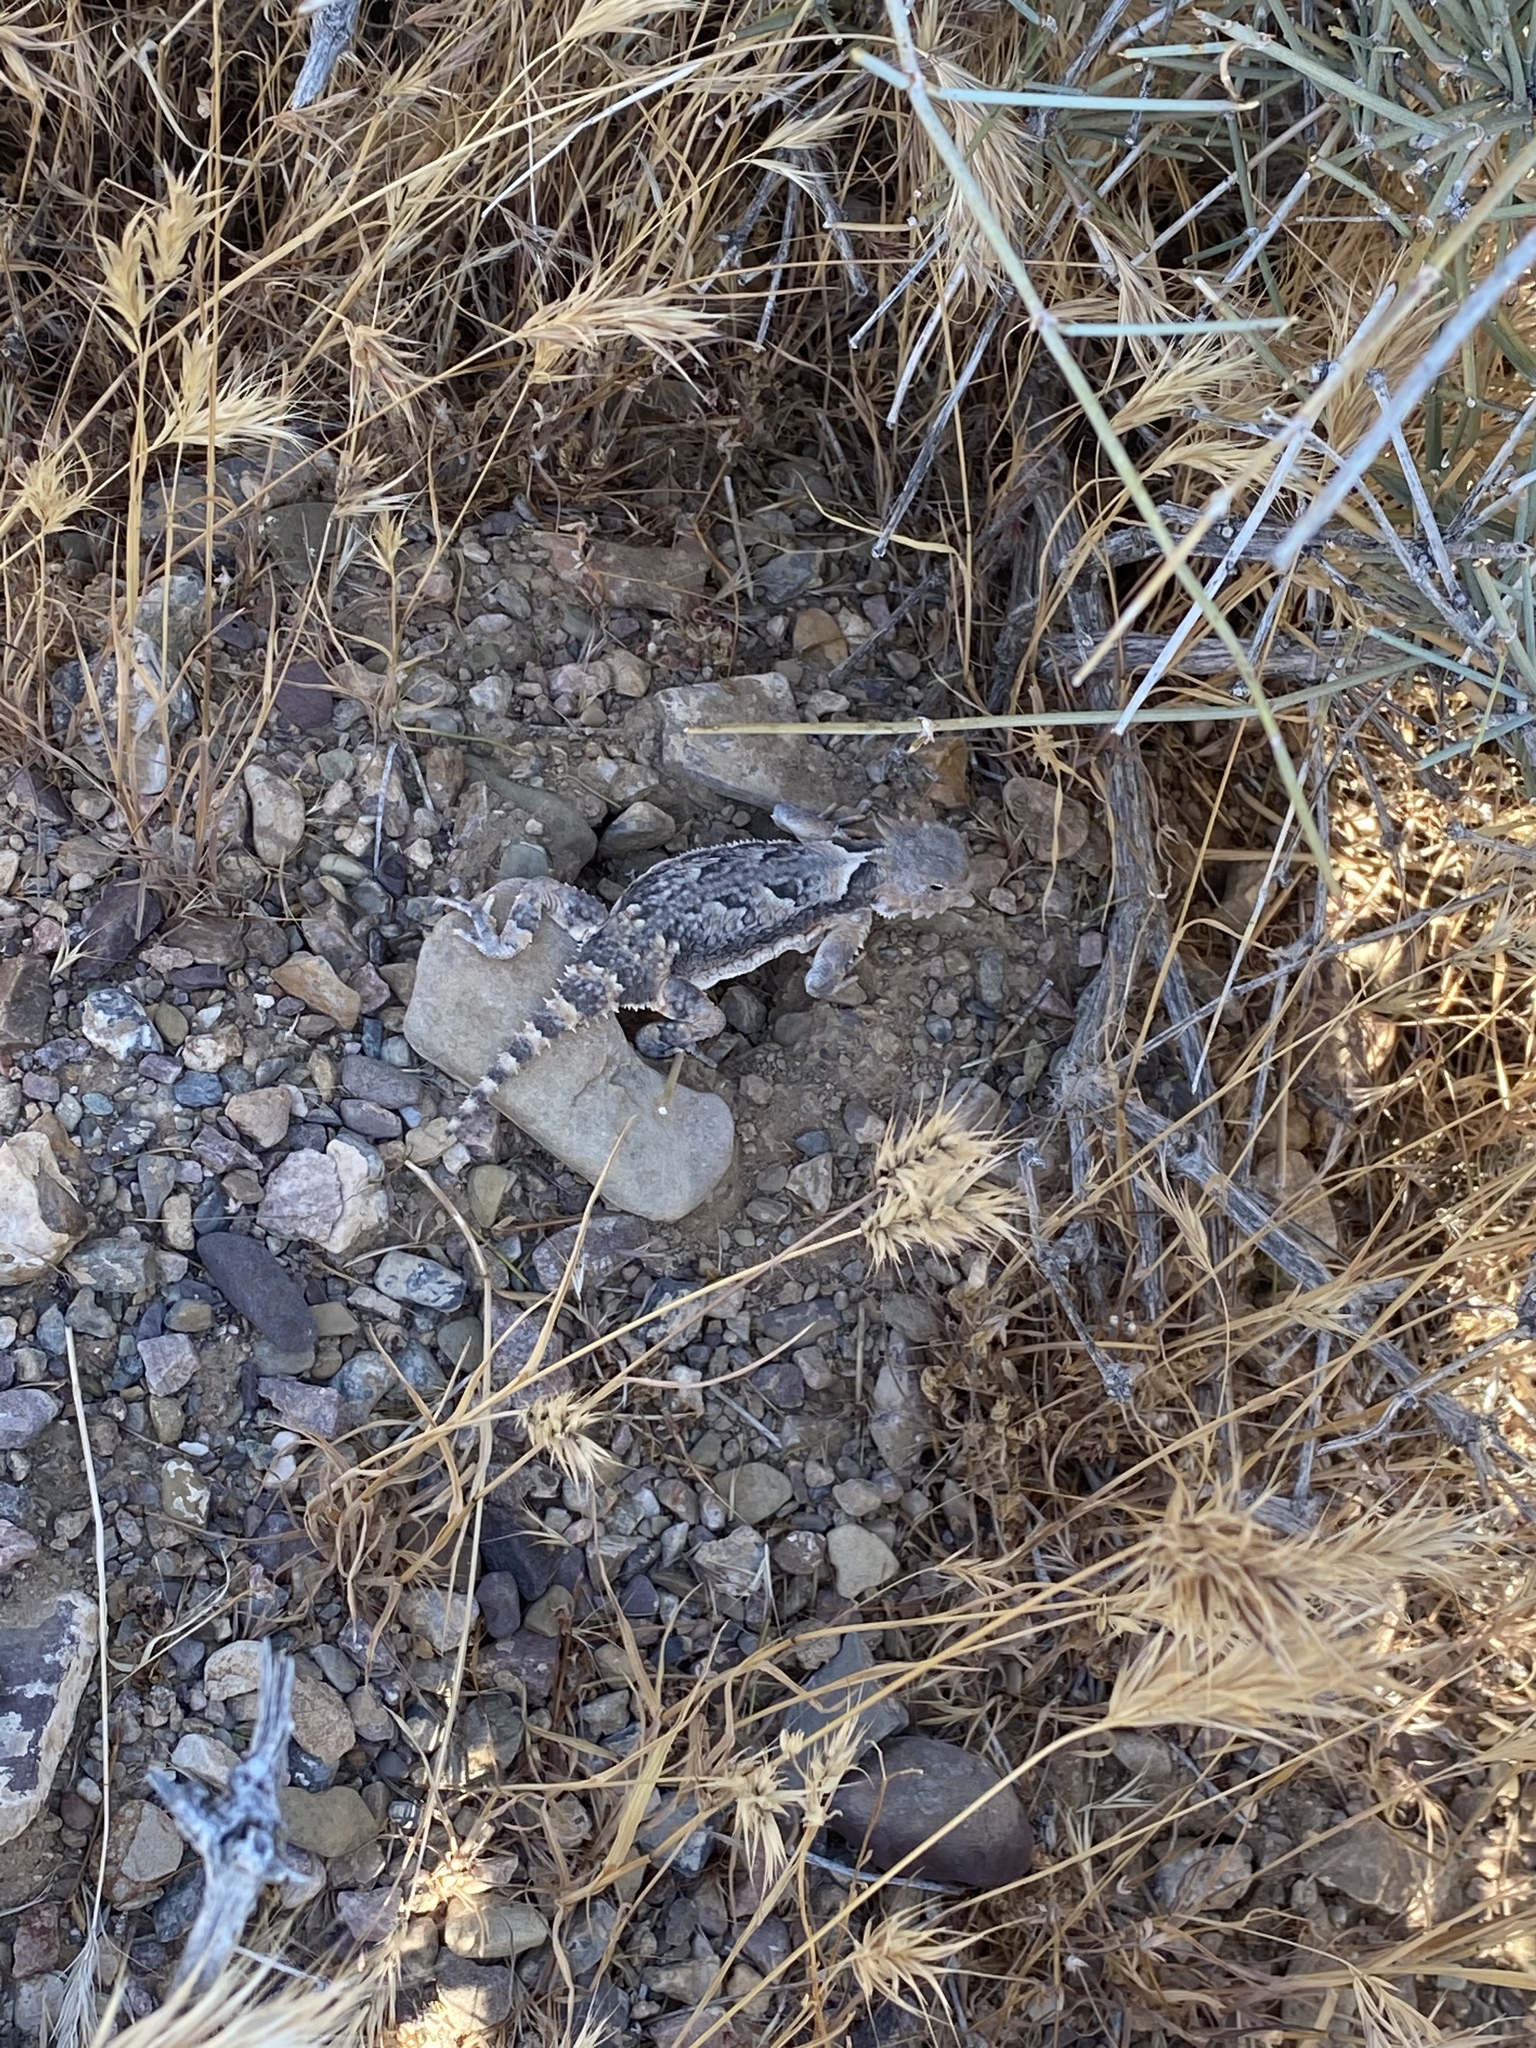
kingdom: Animalia
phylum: Chordata
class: Squamata
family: Phrynosomatidae
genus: Phrynosoma
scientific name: Phrynosoma platyrhinos
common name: Desert horned lizard
